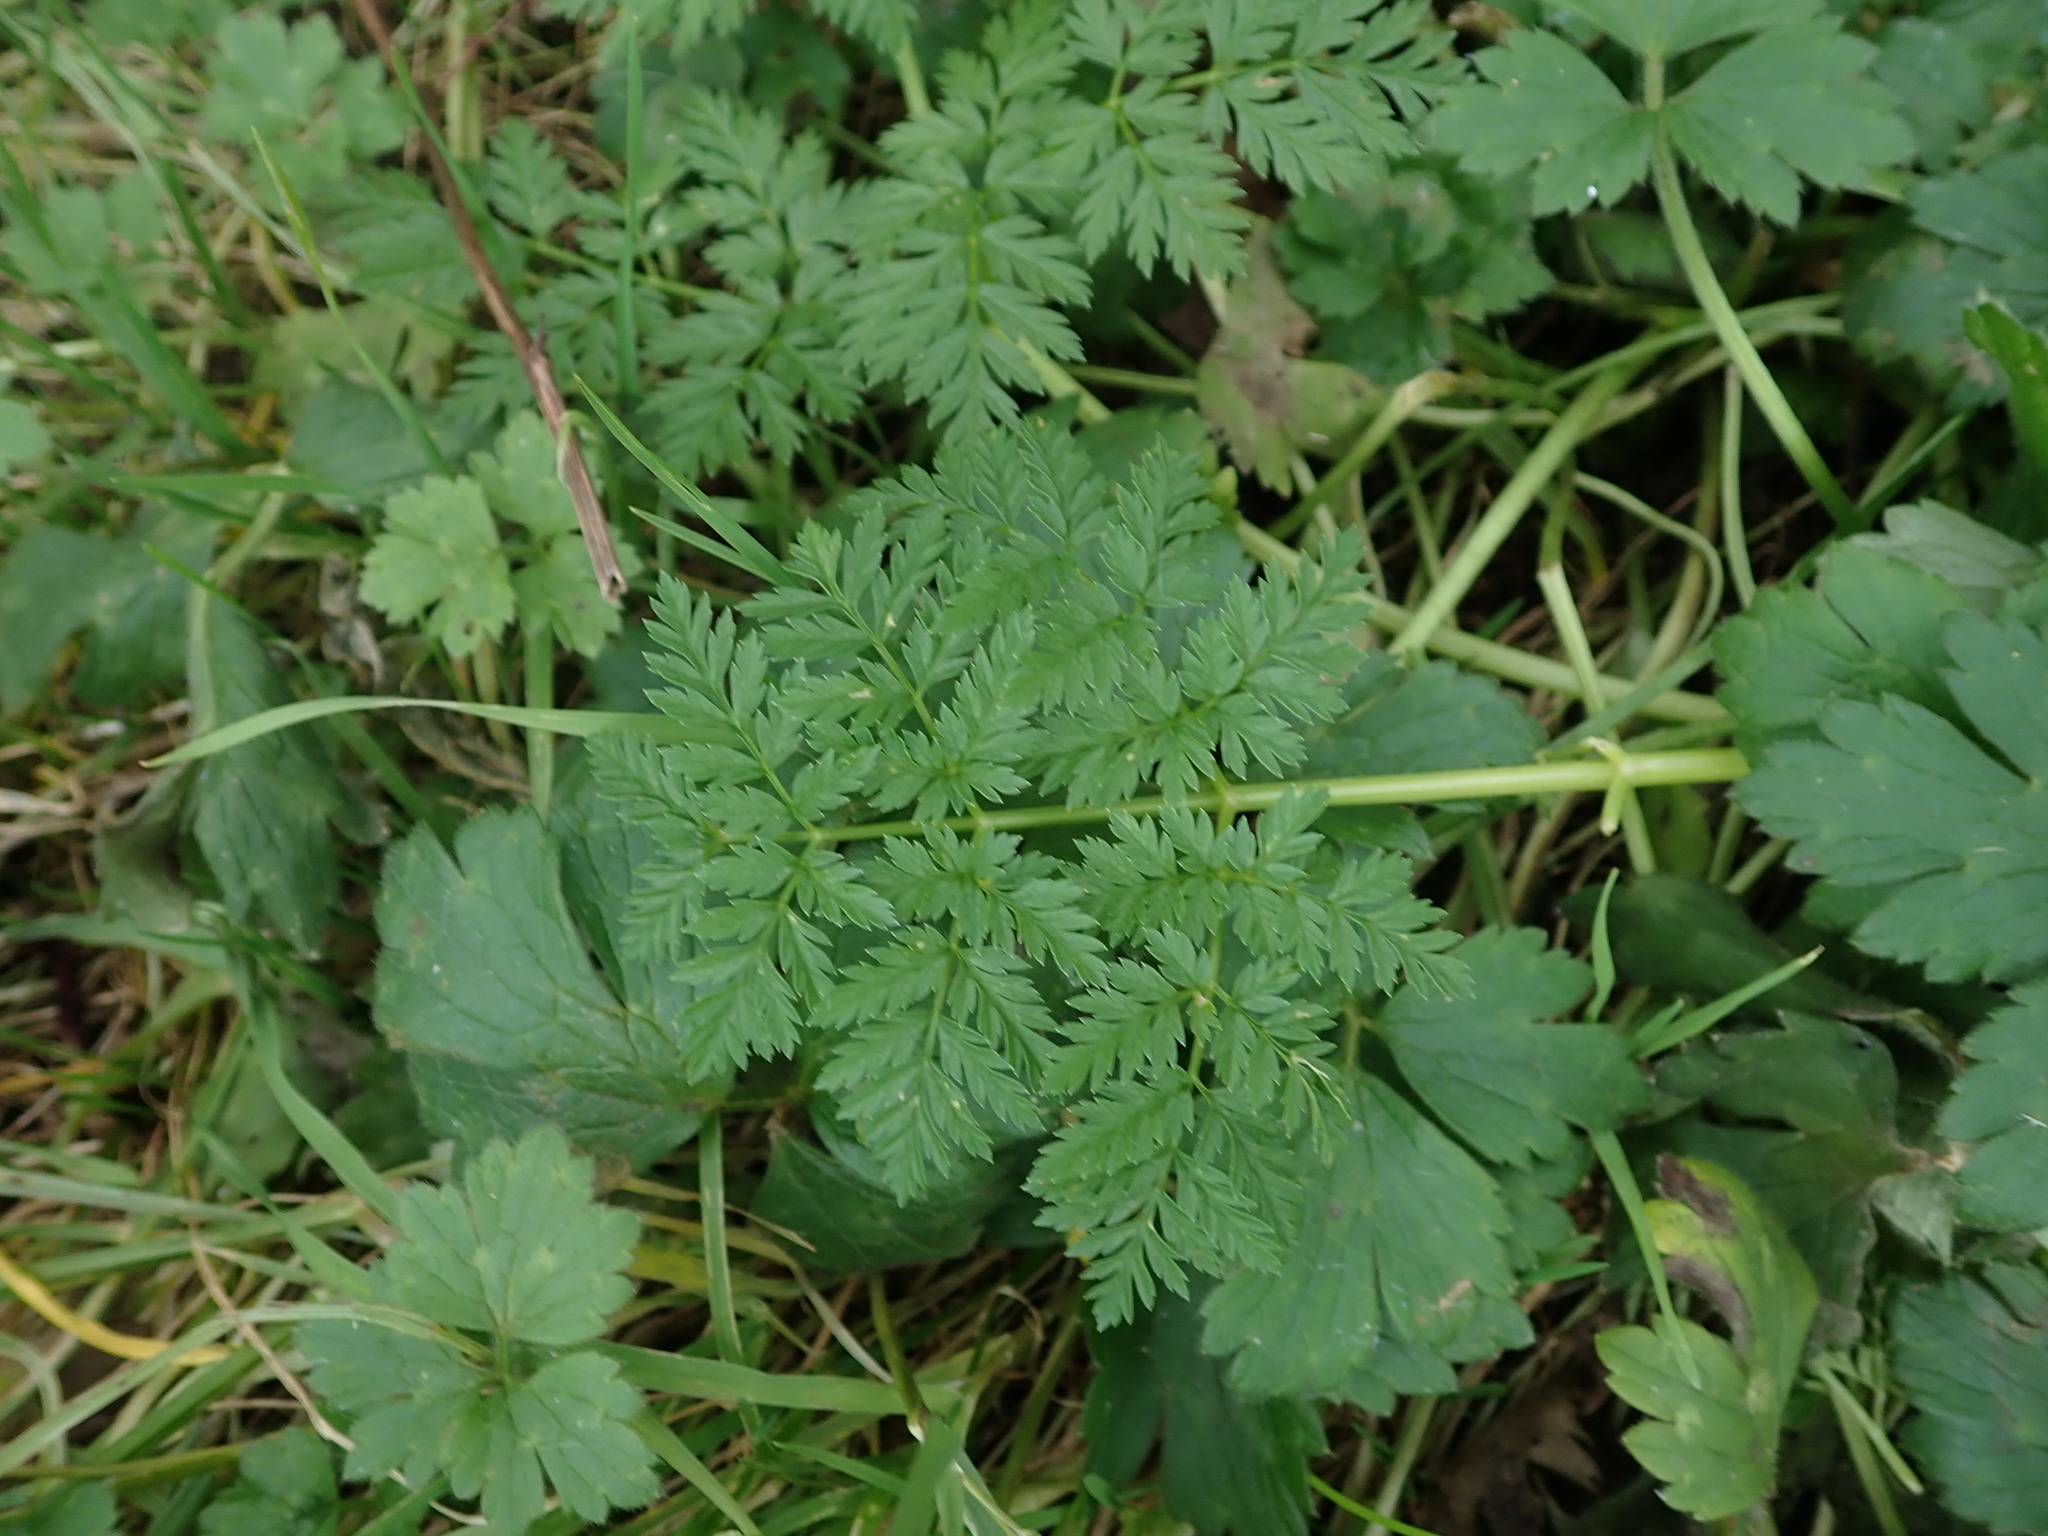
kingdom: Plantae
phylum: Tracheophyta
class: Magnoliopsida
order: Apiales
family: Apiaceae
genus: Conium
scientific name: Conium maculatum
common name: Hemlock
